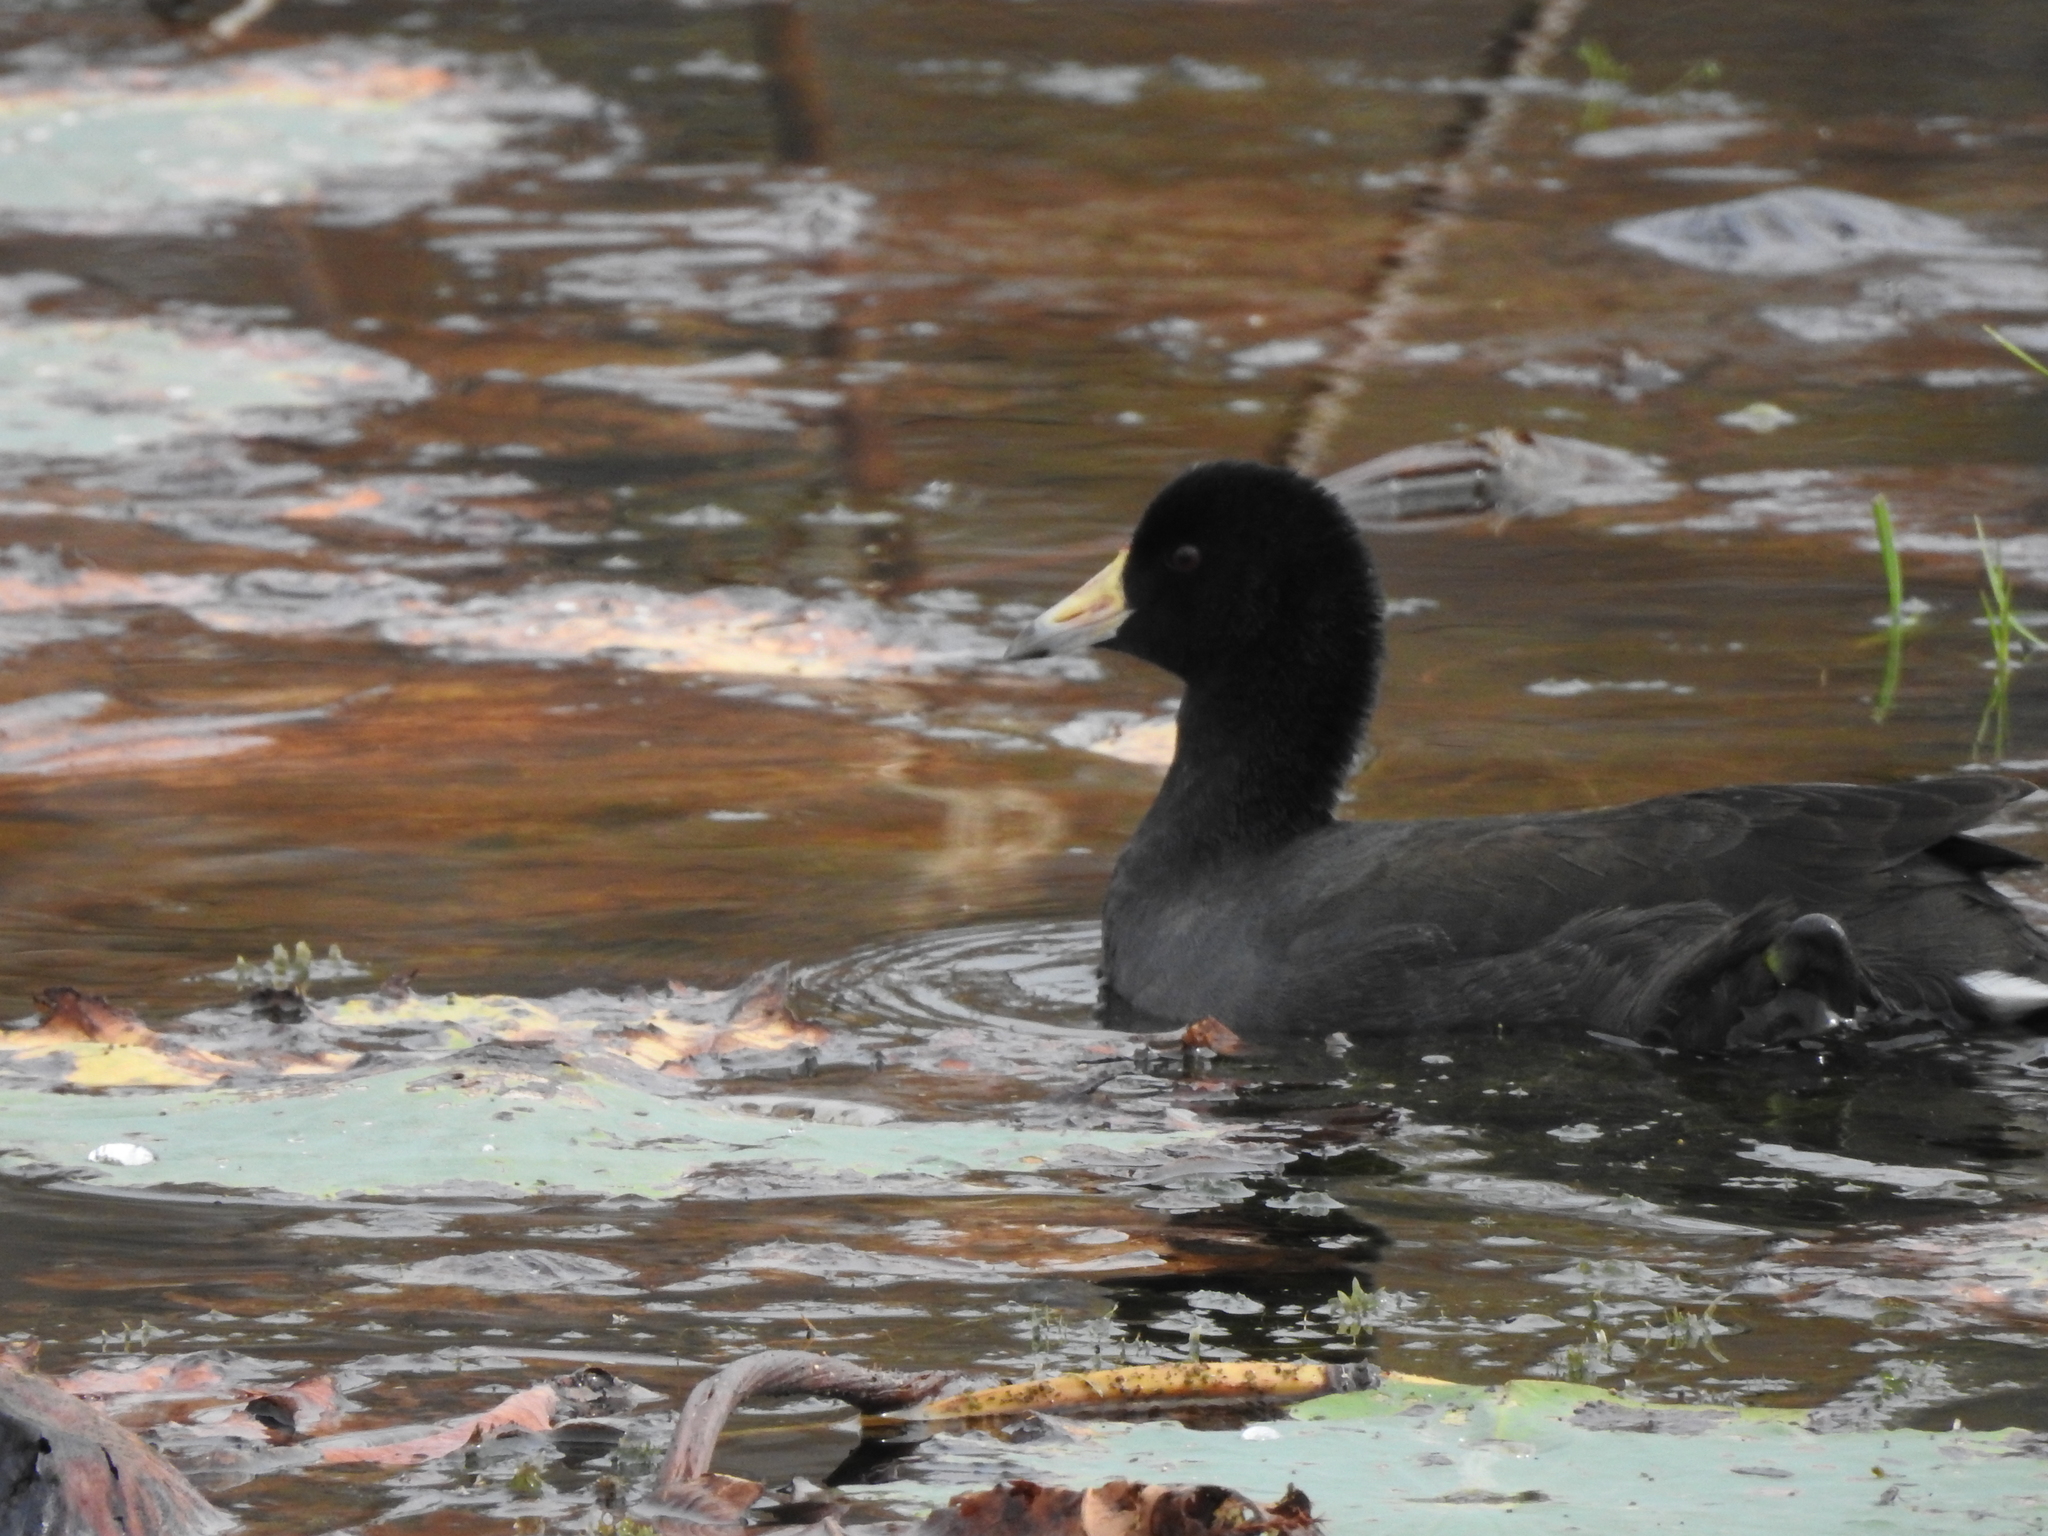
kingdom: Animalia
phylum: Chordata
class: Aves
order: Gruiformes
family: Rallidae
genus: Fulica
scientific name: Fulica americana
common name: American coot
